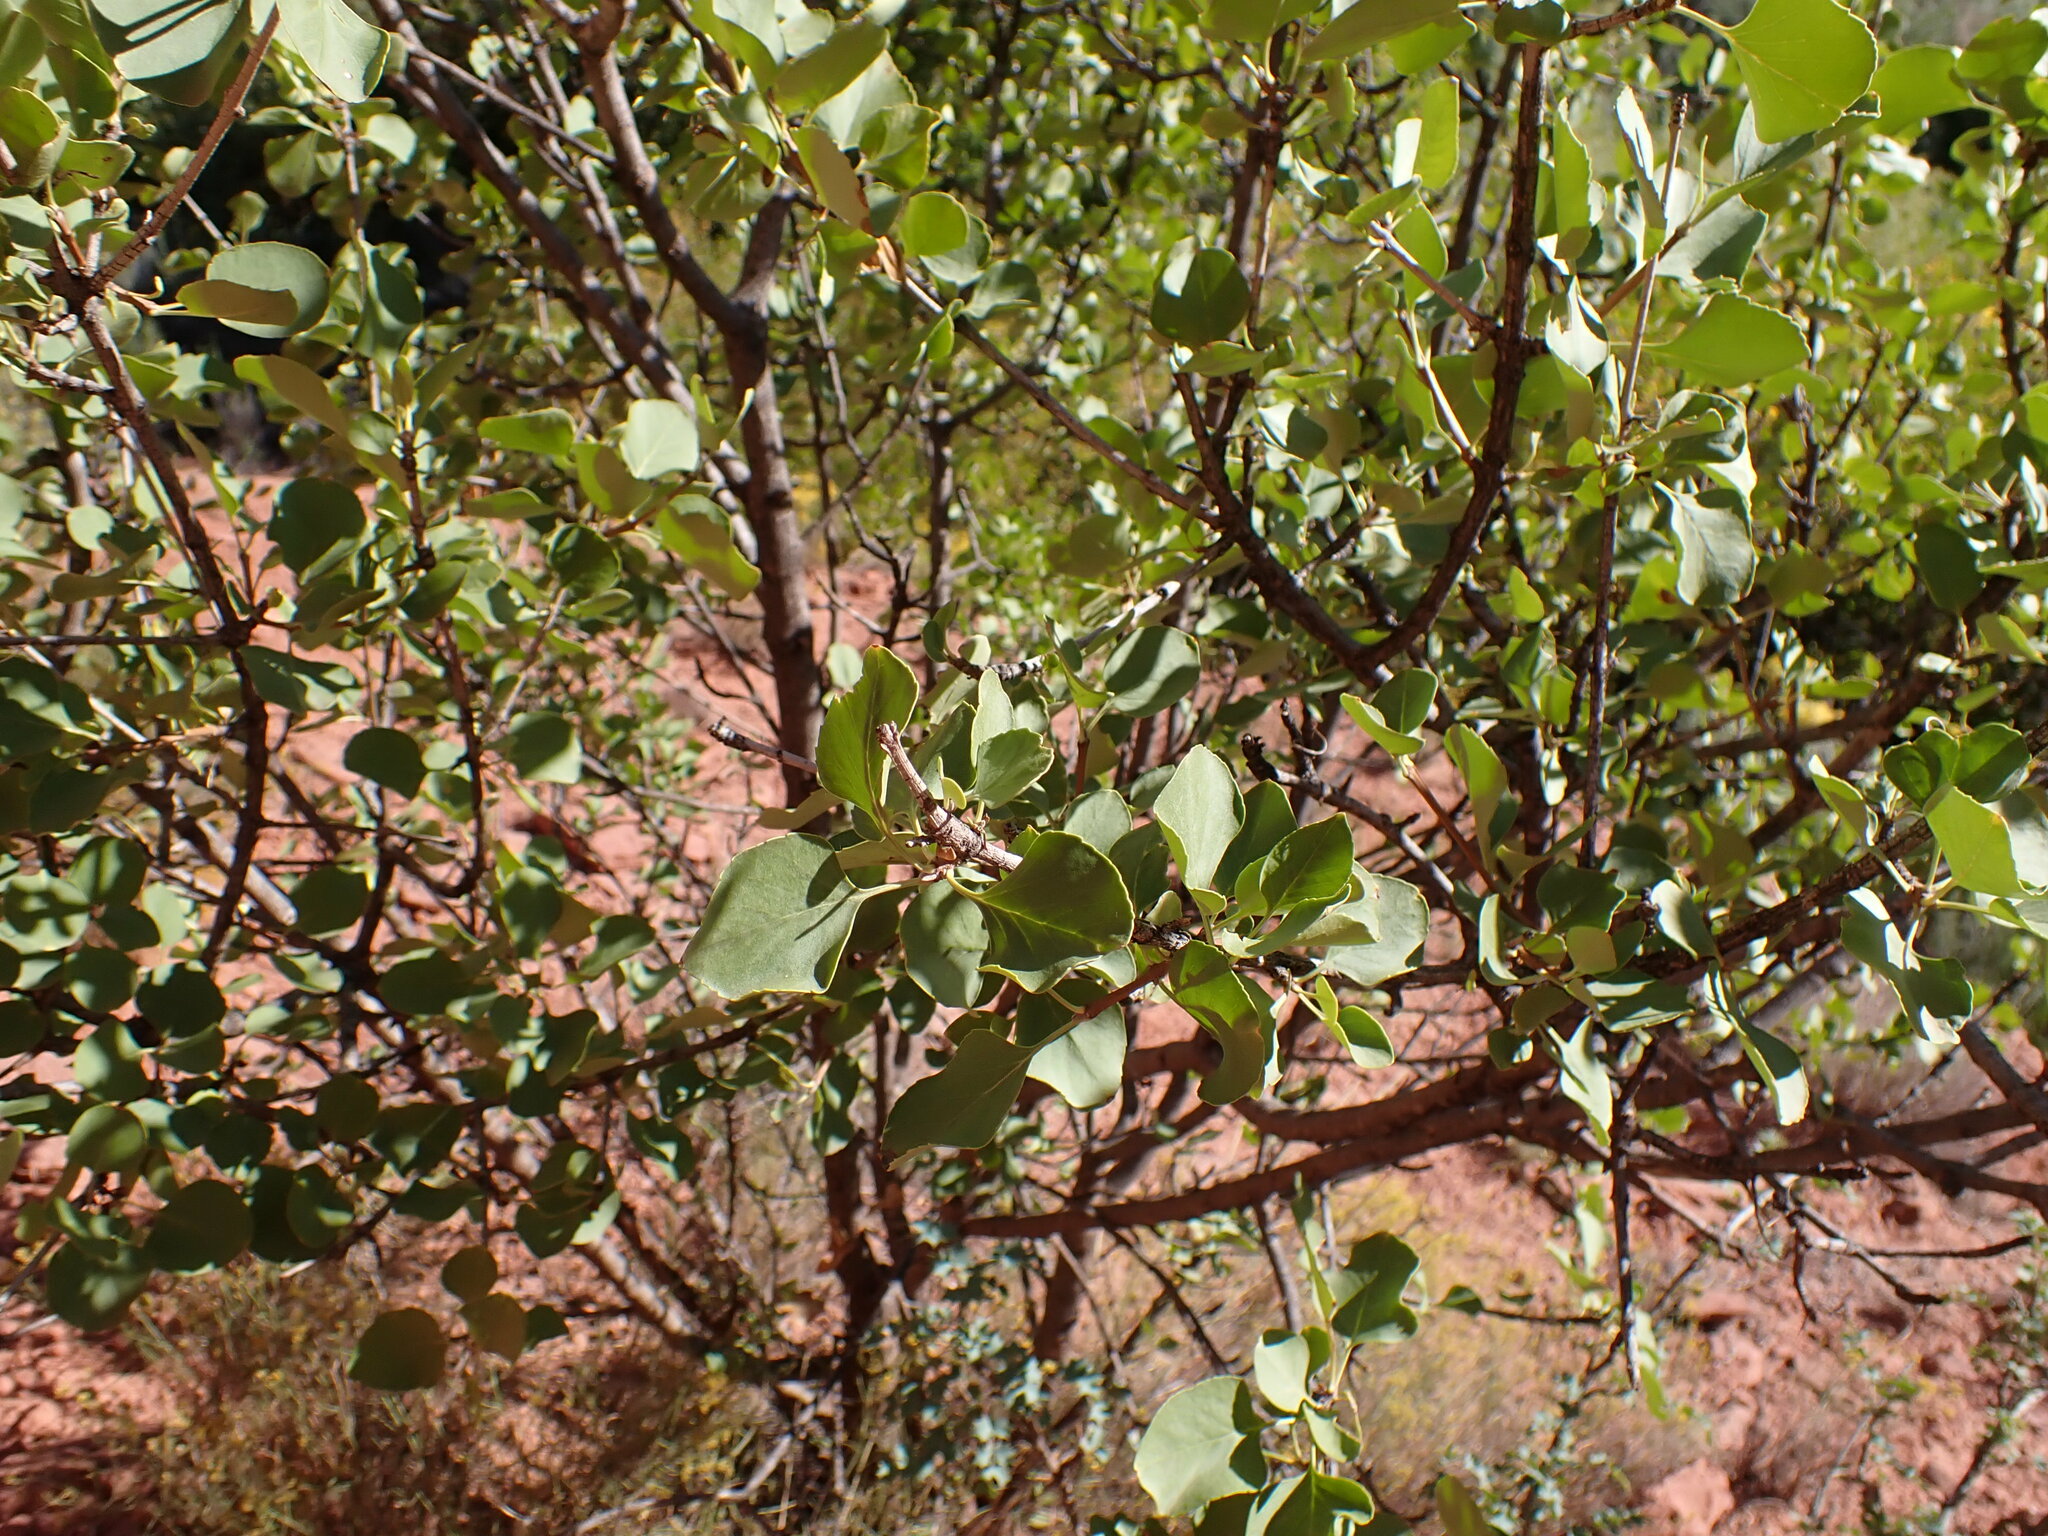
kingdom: Plantae
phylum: Tracheophyta
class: Magnoliopsida
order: Lamiales
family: Oleaceae
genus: Fraxinus
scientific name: Fraxinus anomala
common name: Utah ash
